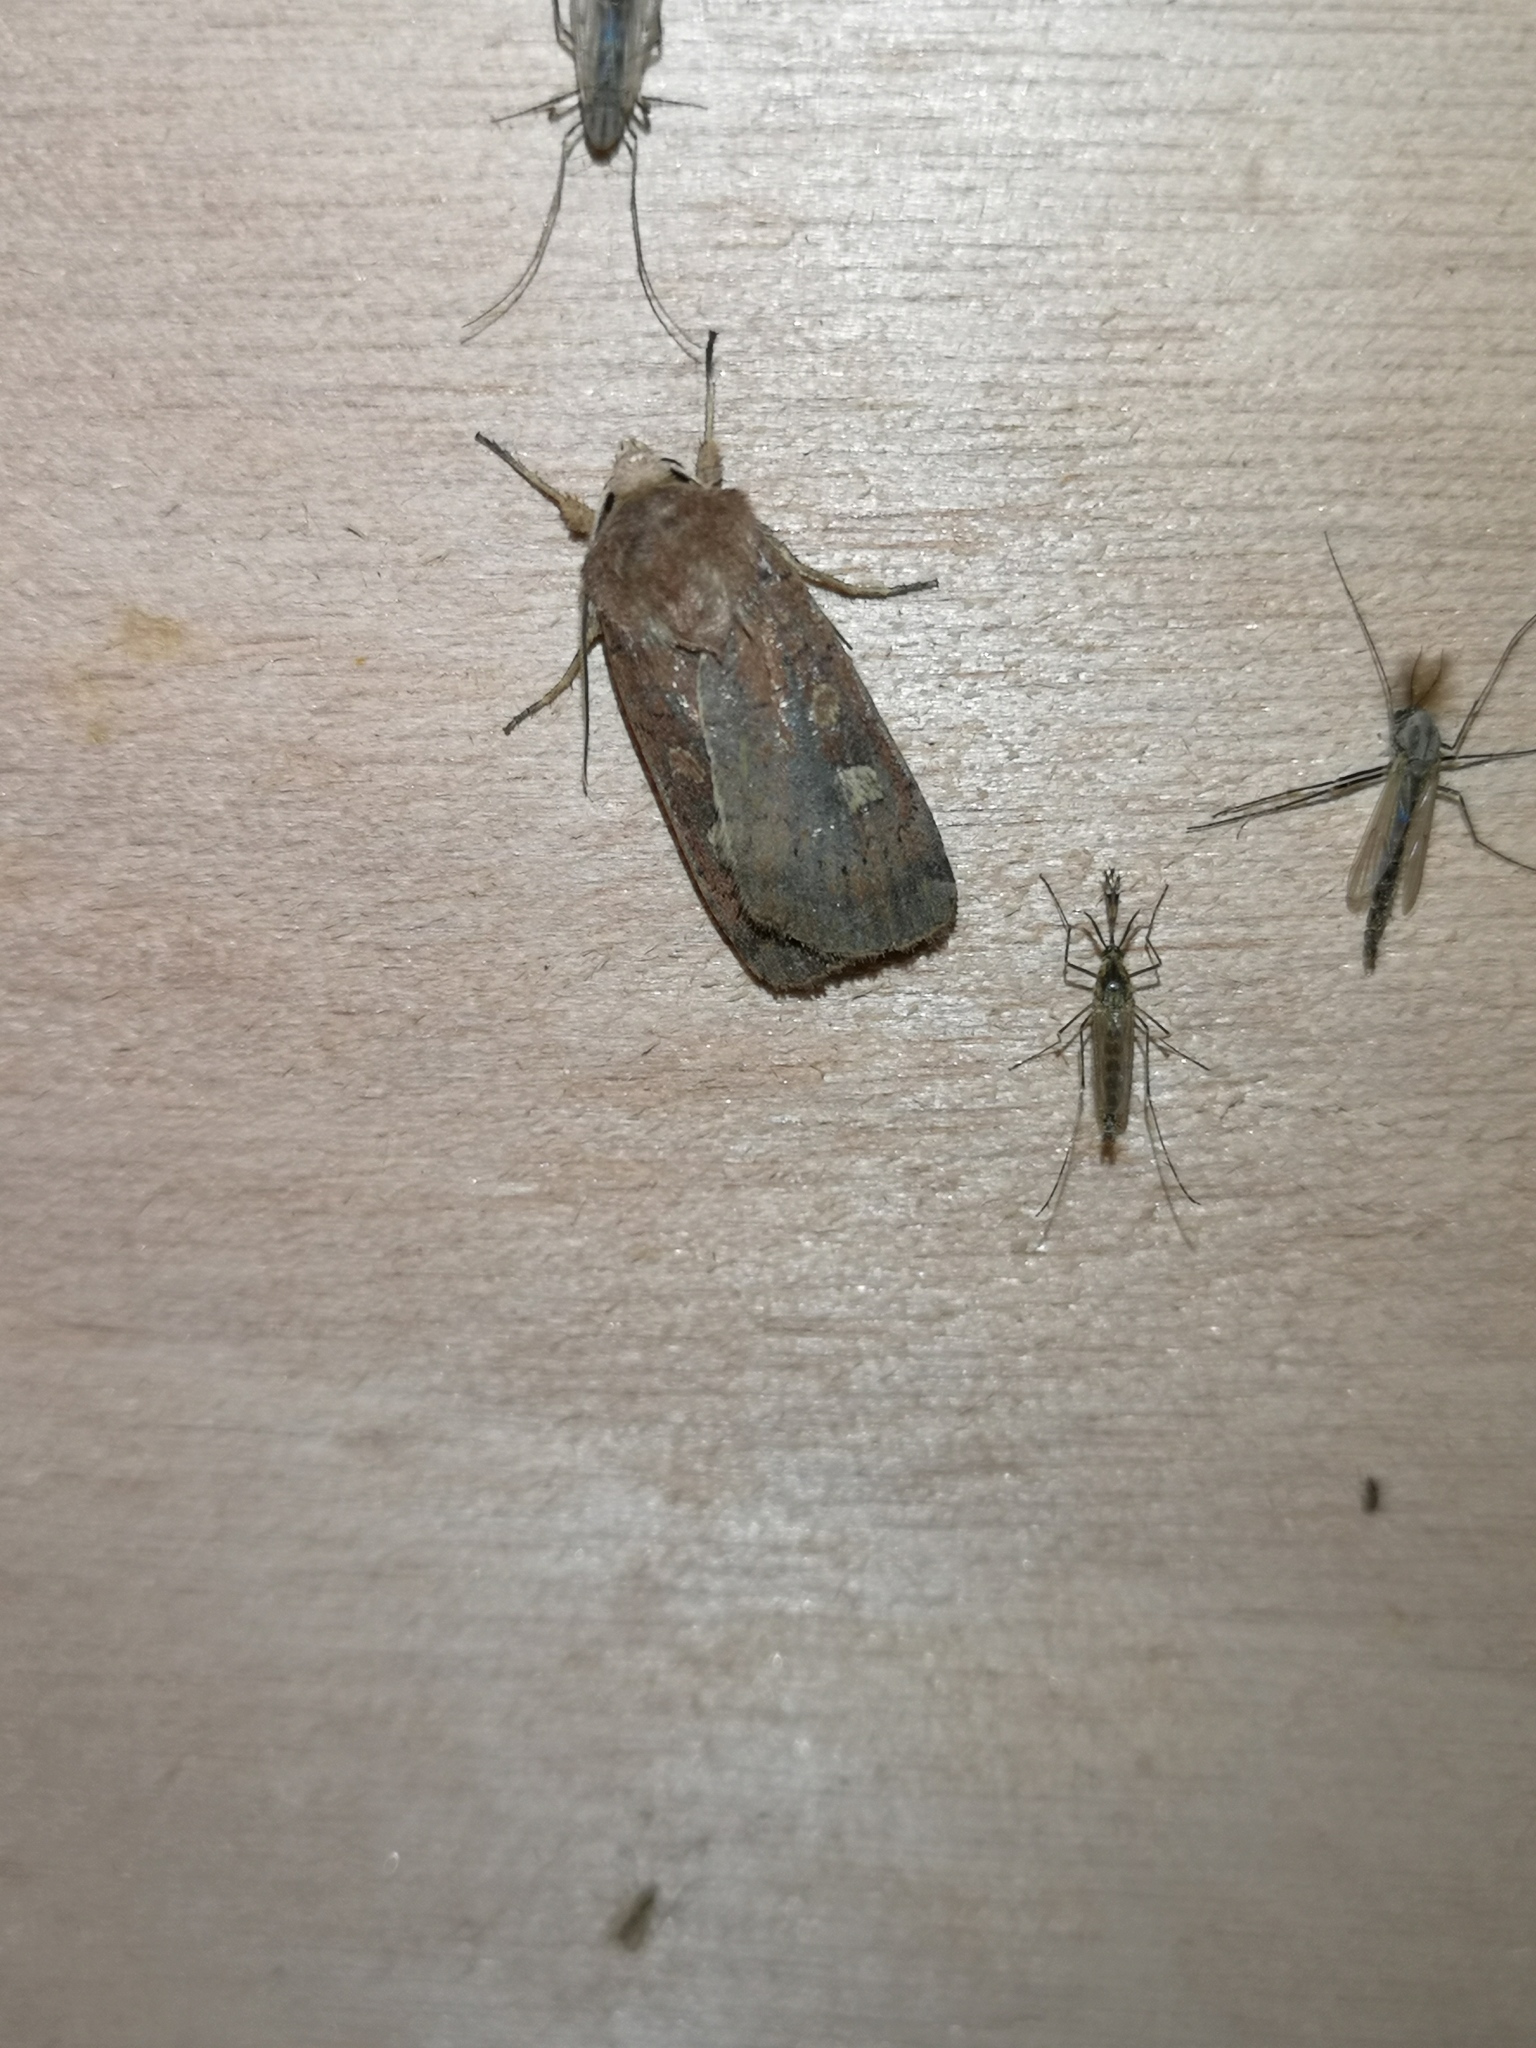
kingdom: Animalia
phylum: Arthropoda
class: Insecta
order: Lepidoptera
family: Noctuidae
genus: Xestia
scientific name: Xestia xanthographa
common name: Square-spot rustic
